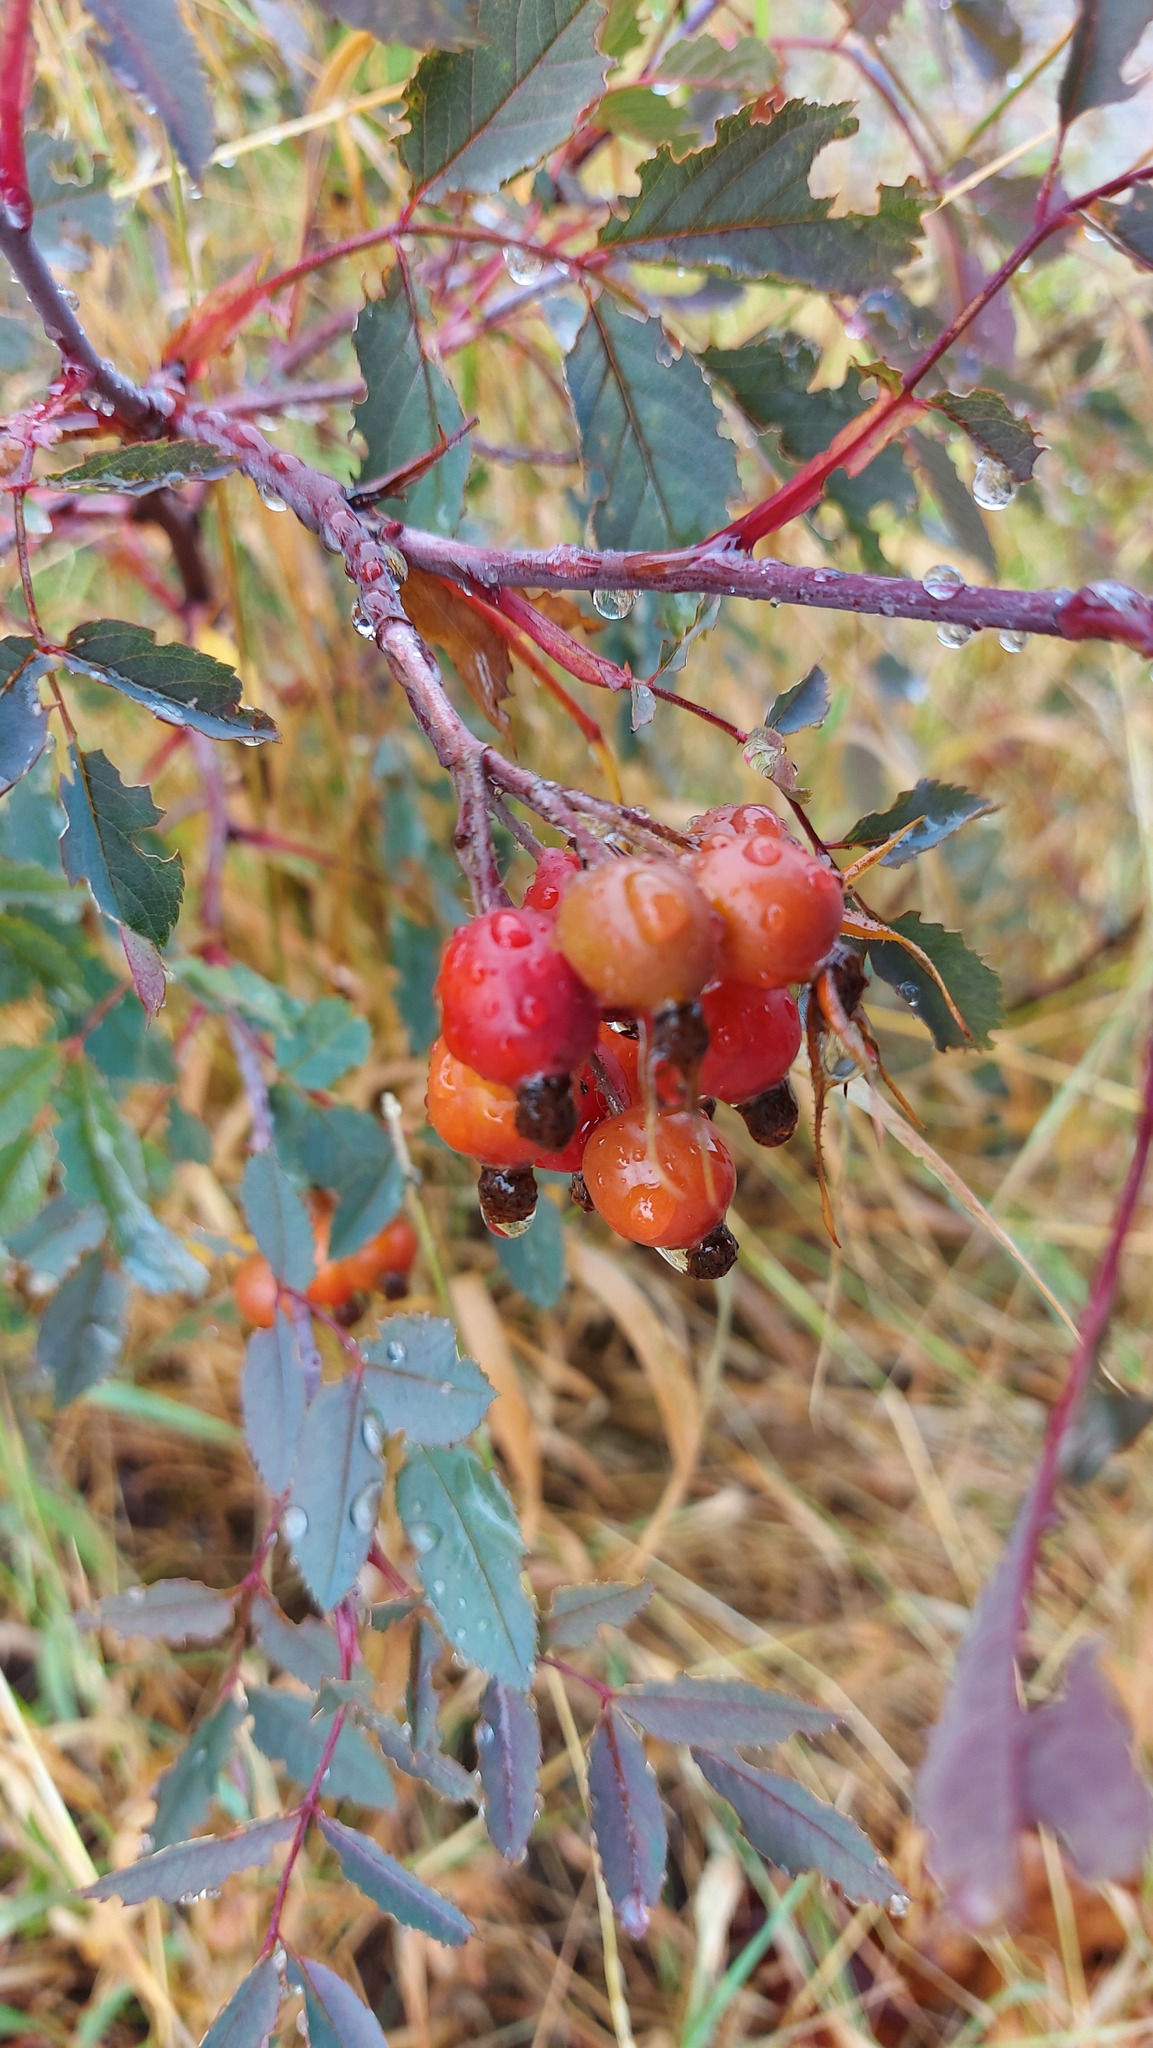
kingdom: Plantae
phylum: Tracheophyta
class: Magnoliopsida
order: Rosales
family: Rosaceae
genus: Rosa
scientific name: Rosa glauca
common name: Redleaf rose
